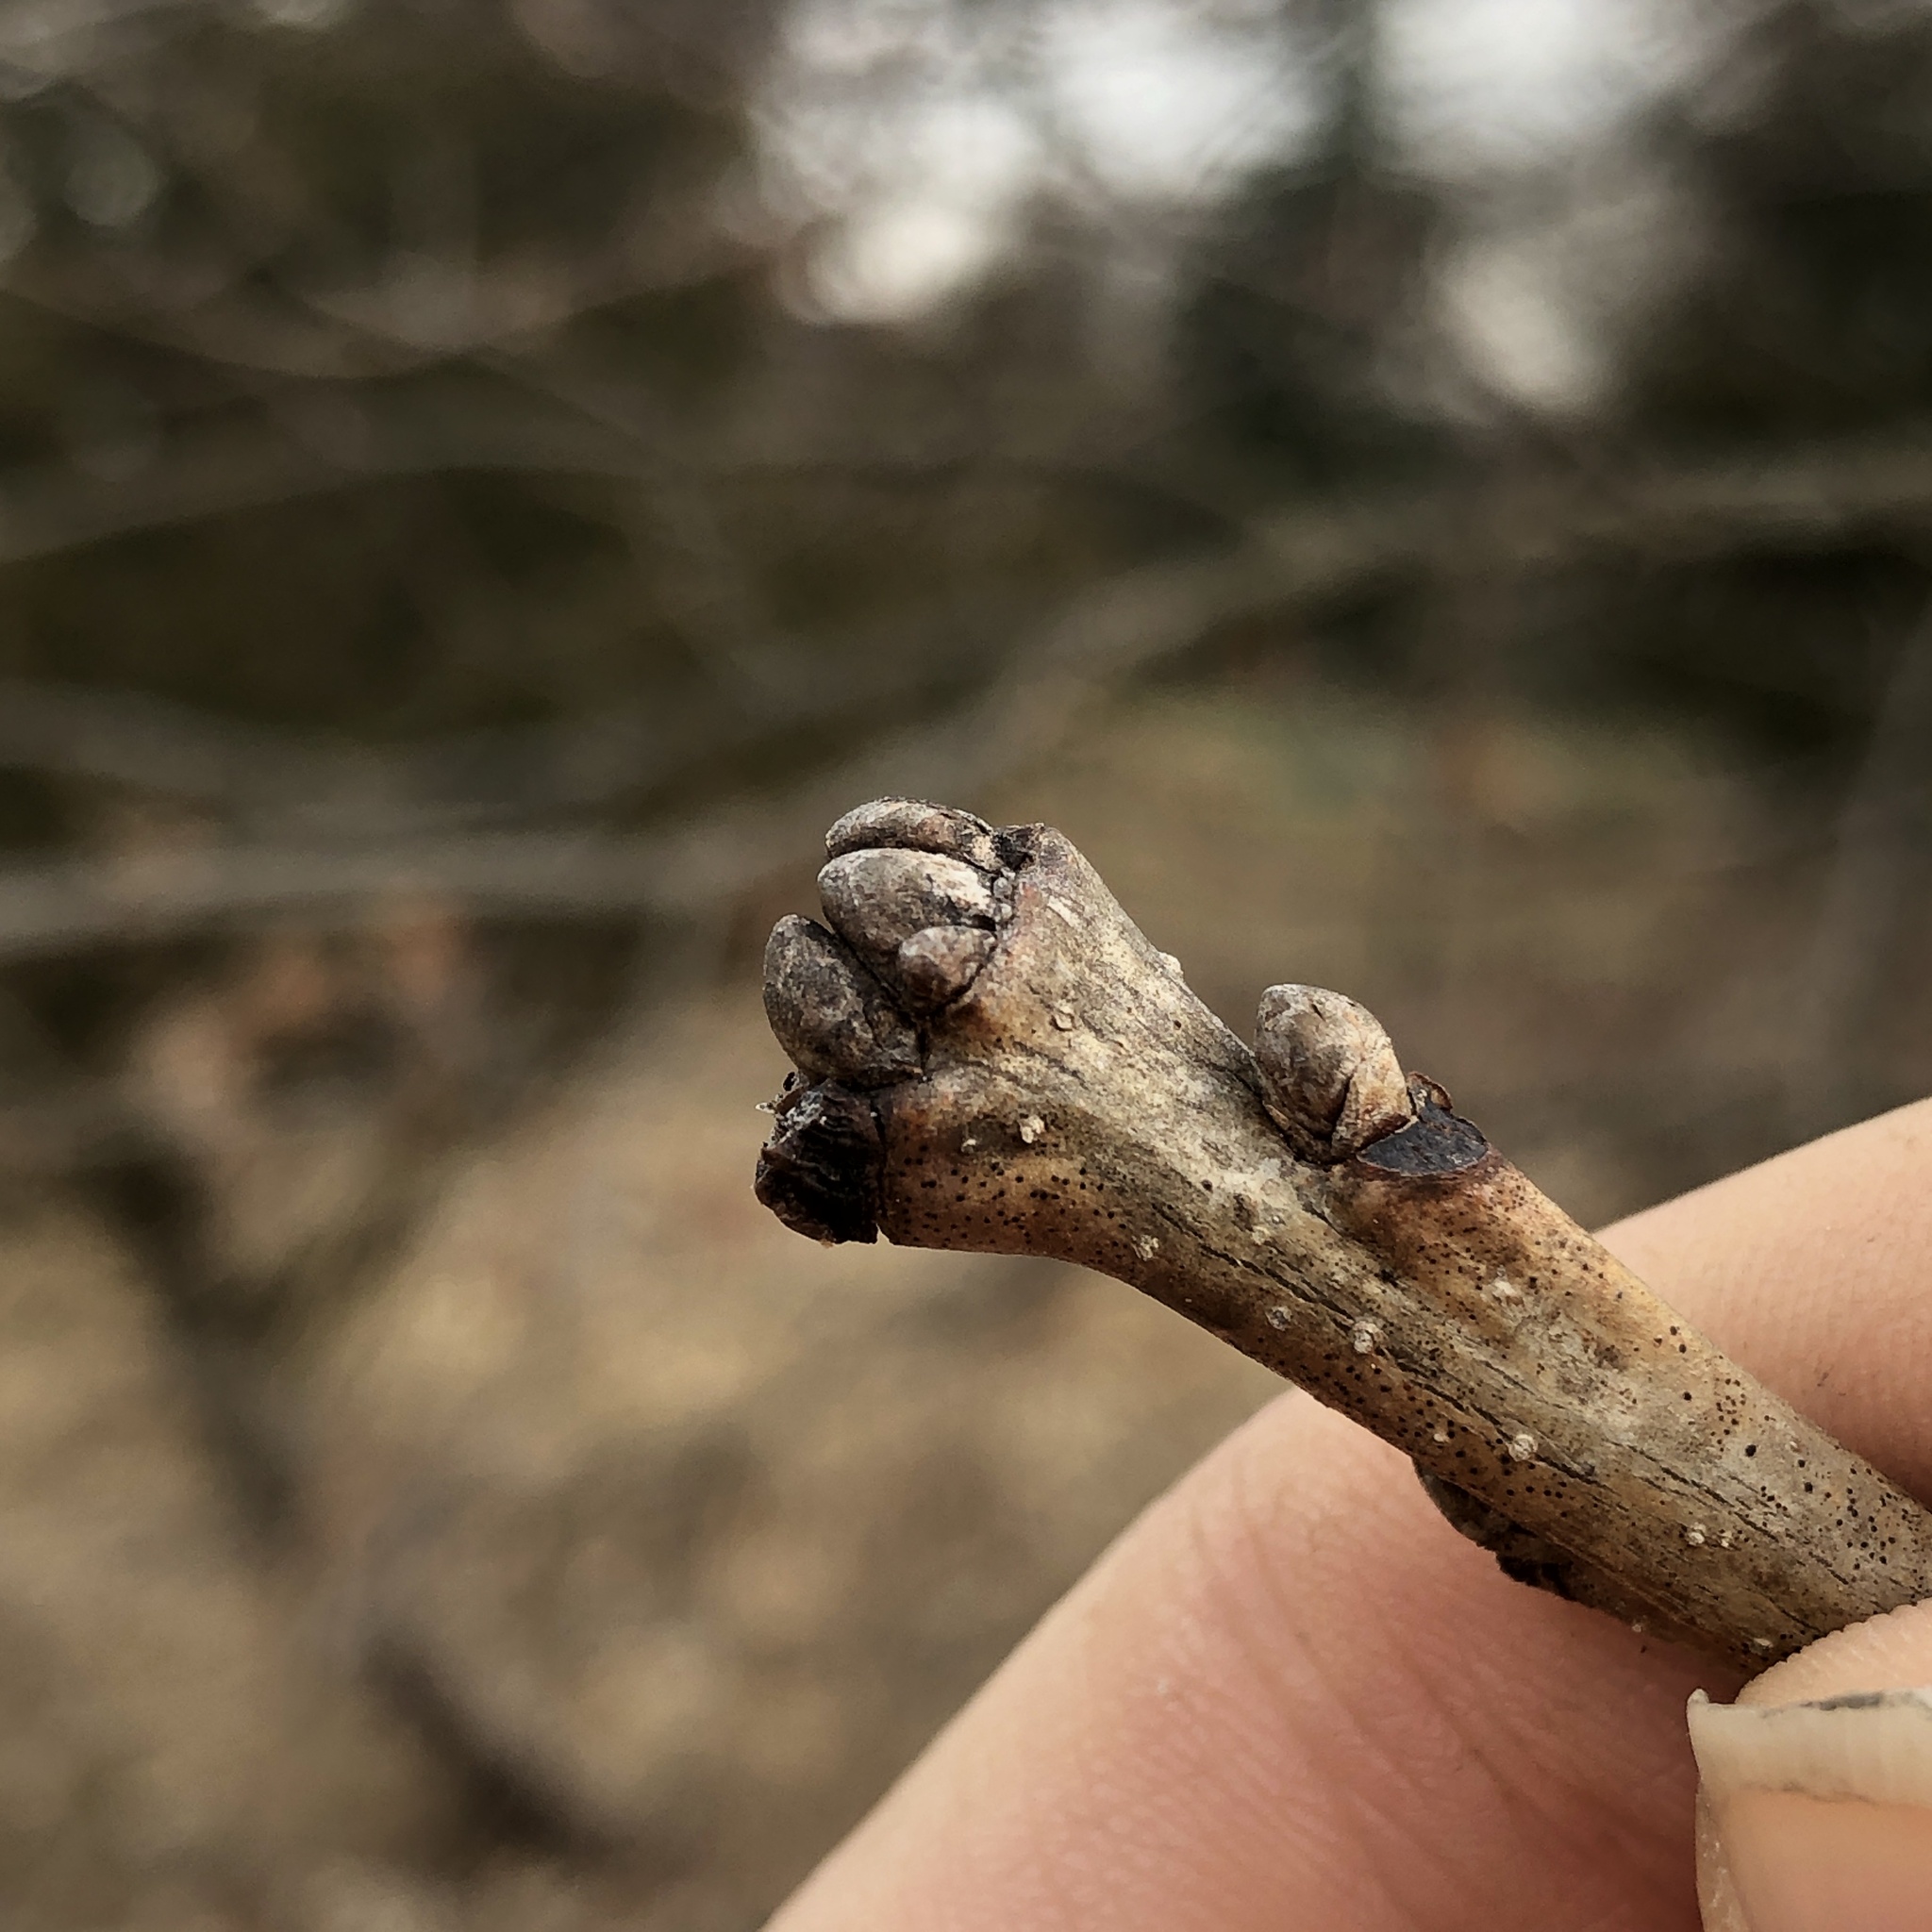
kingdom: Plantae
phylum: Tracheophyta
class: Magnoliopsida
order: Fagales
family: Fagaceae
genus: Quercus
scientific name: Quercus bicolor
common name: Swamp white oak
